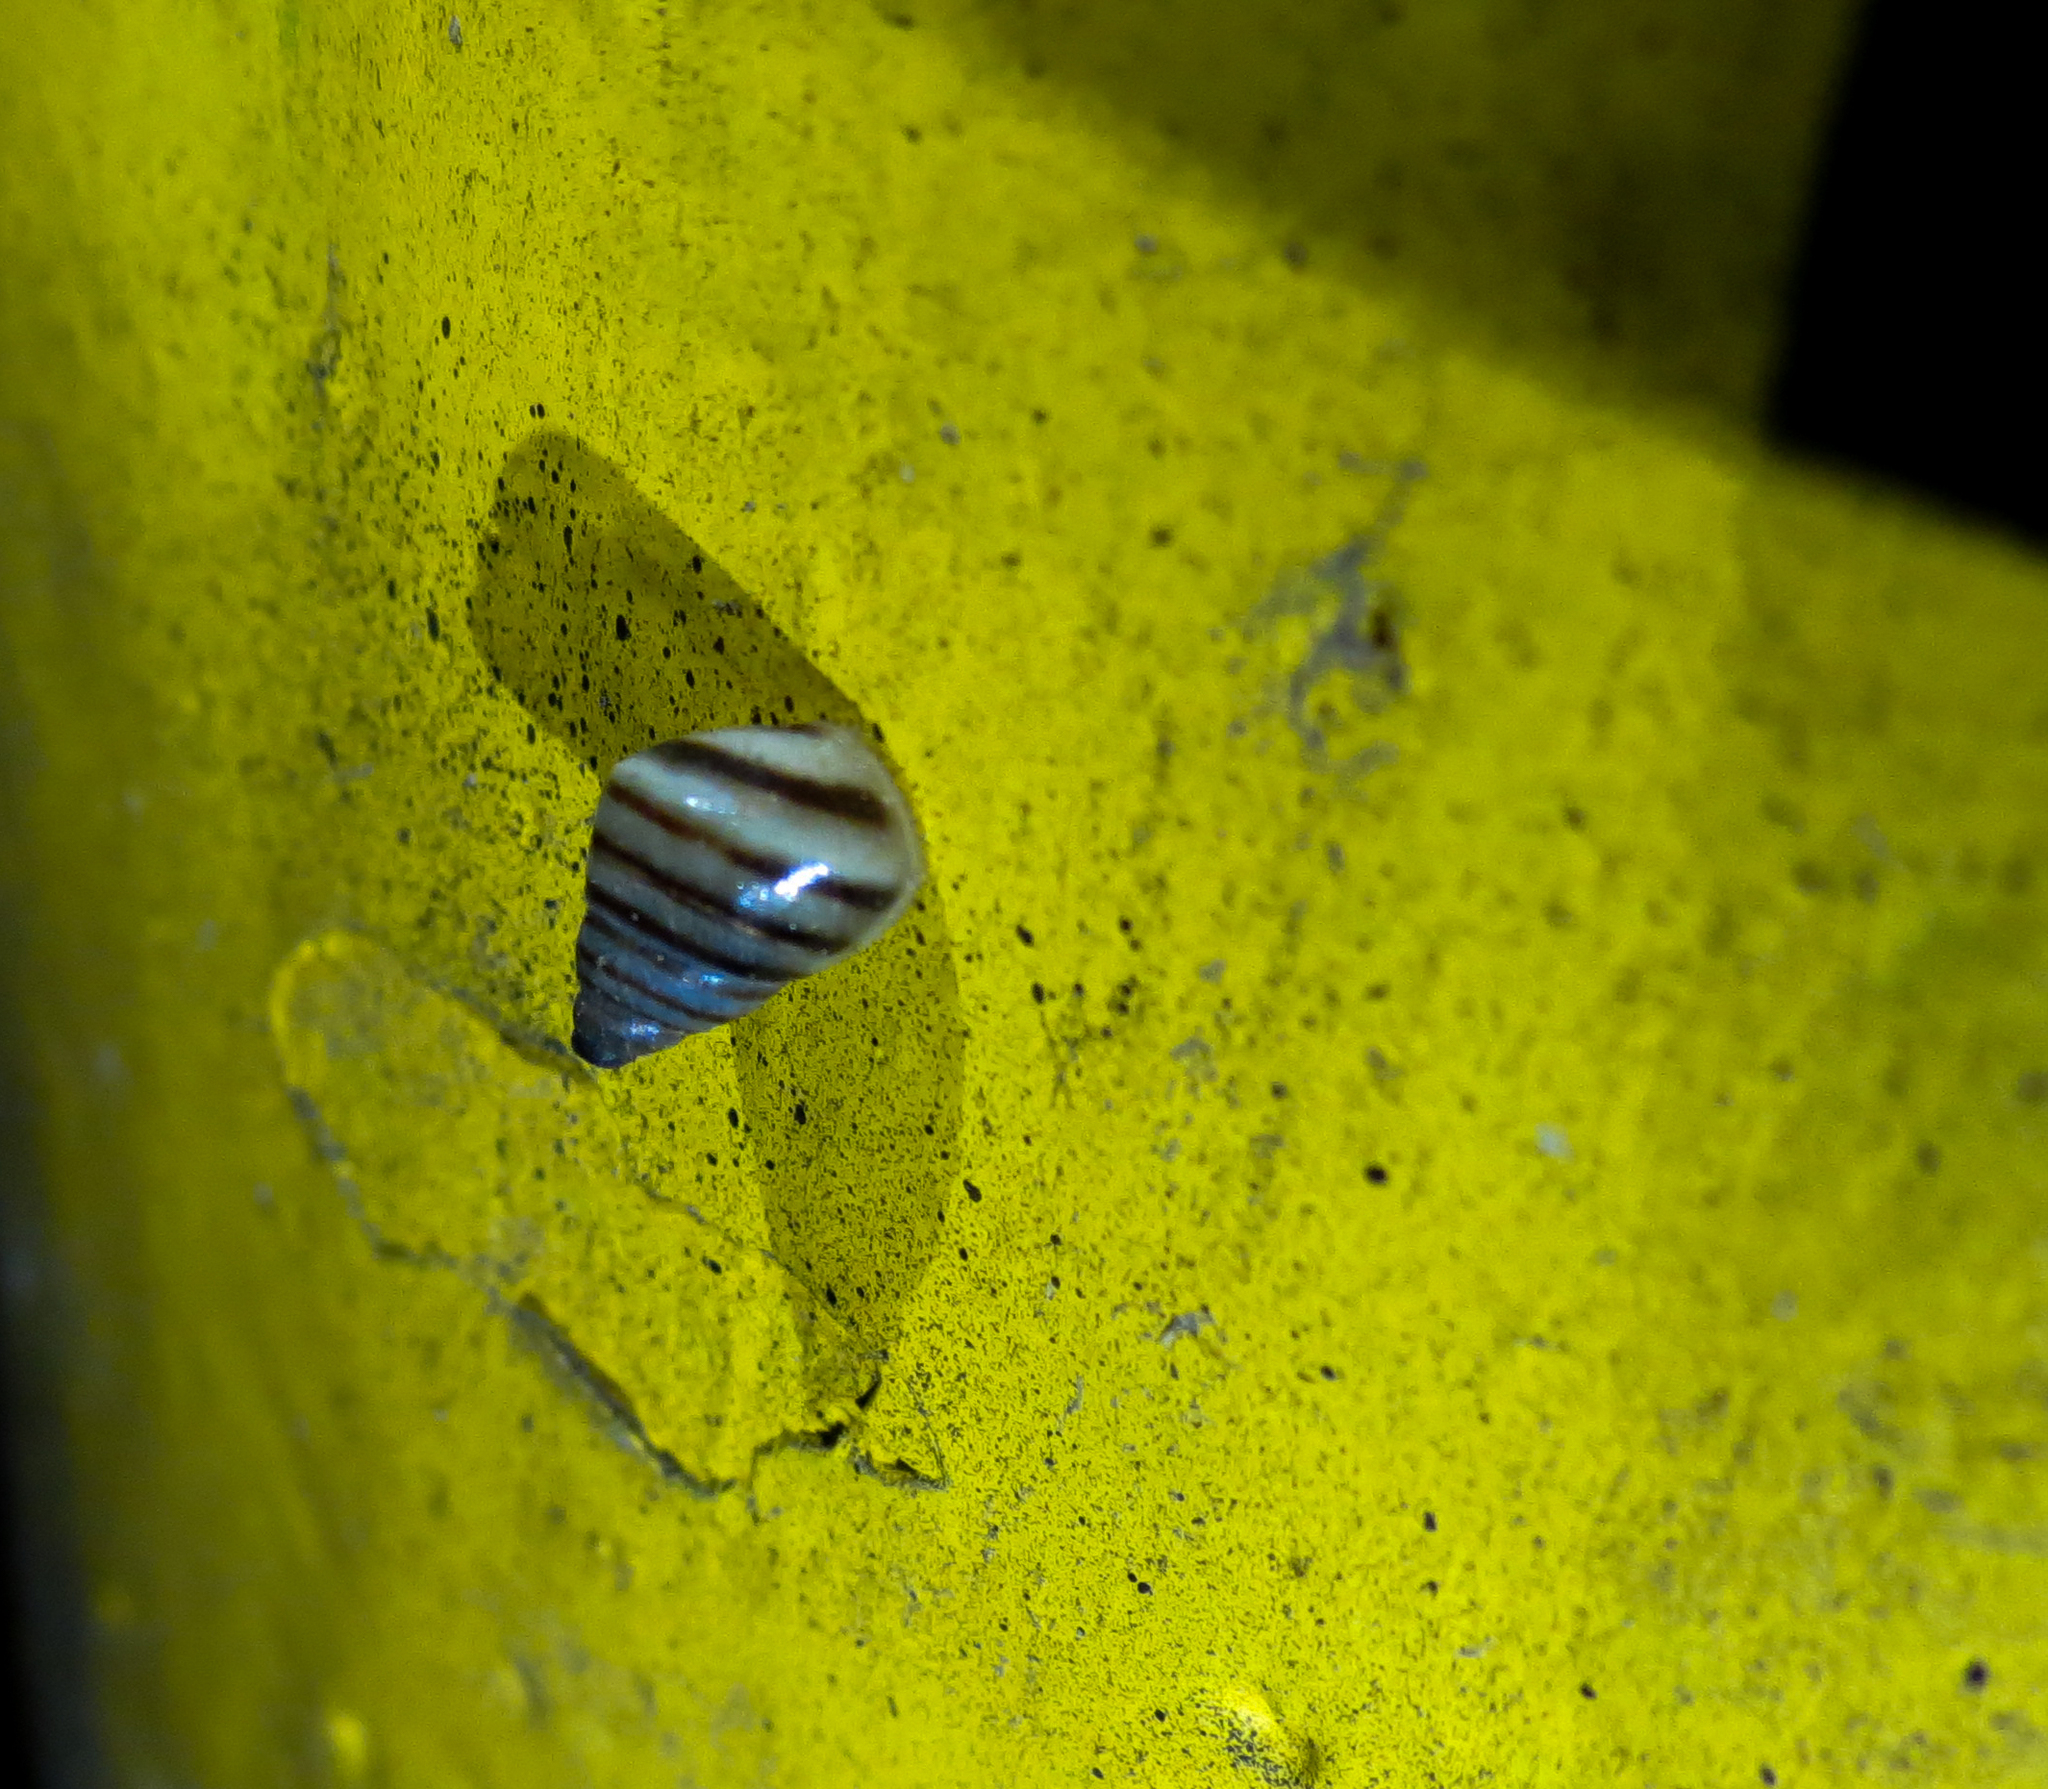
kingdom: Animalia
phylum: Mollusca
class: Gastropoda
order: Stylommatophora
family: Bulimulidae
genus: Drymaeus
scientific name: Drymaeus
